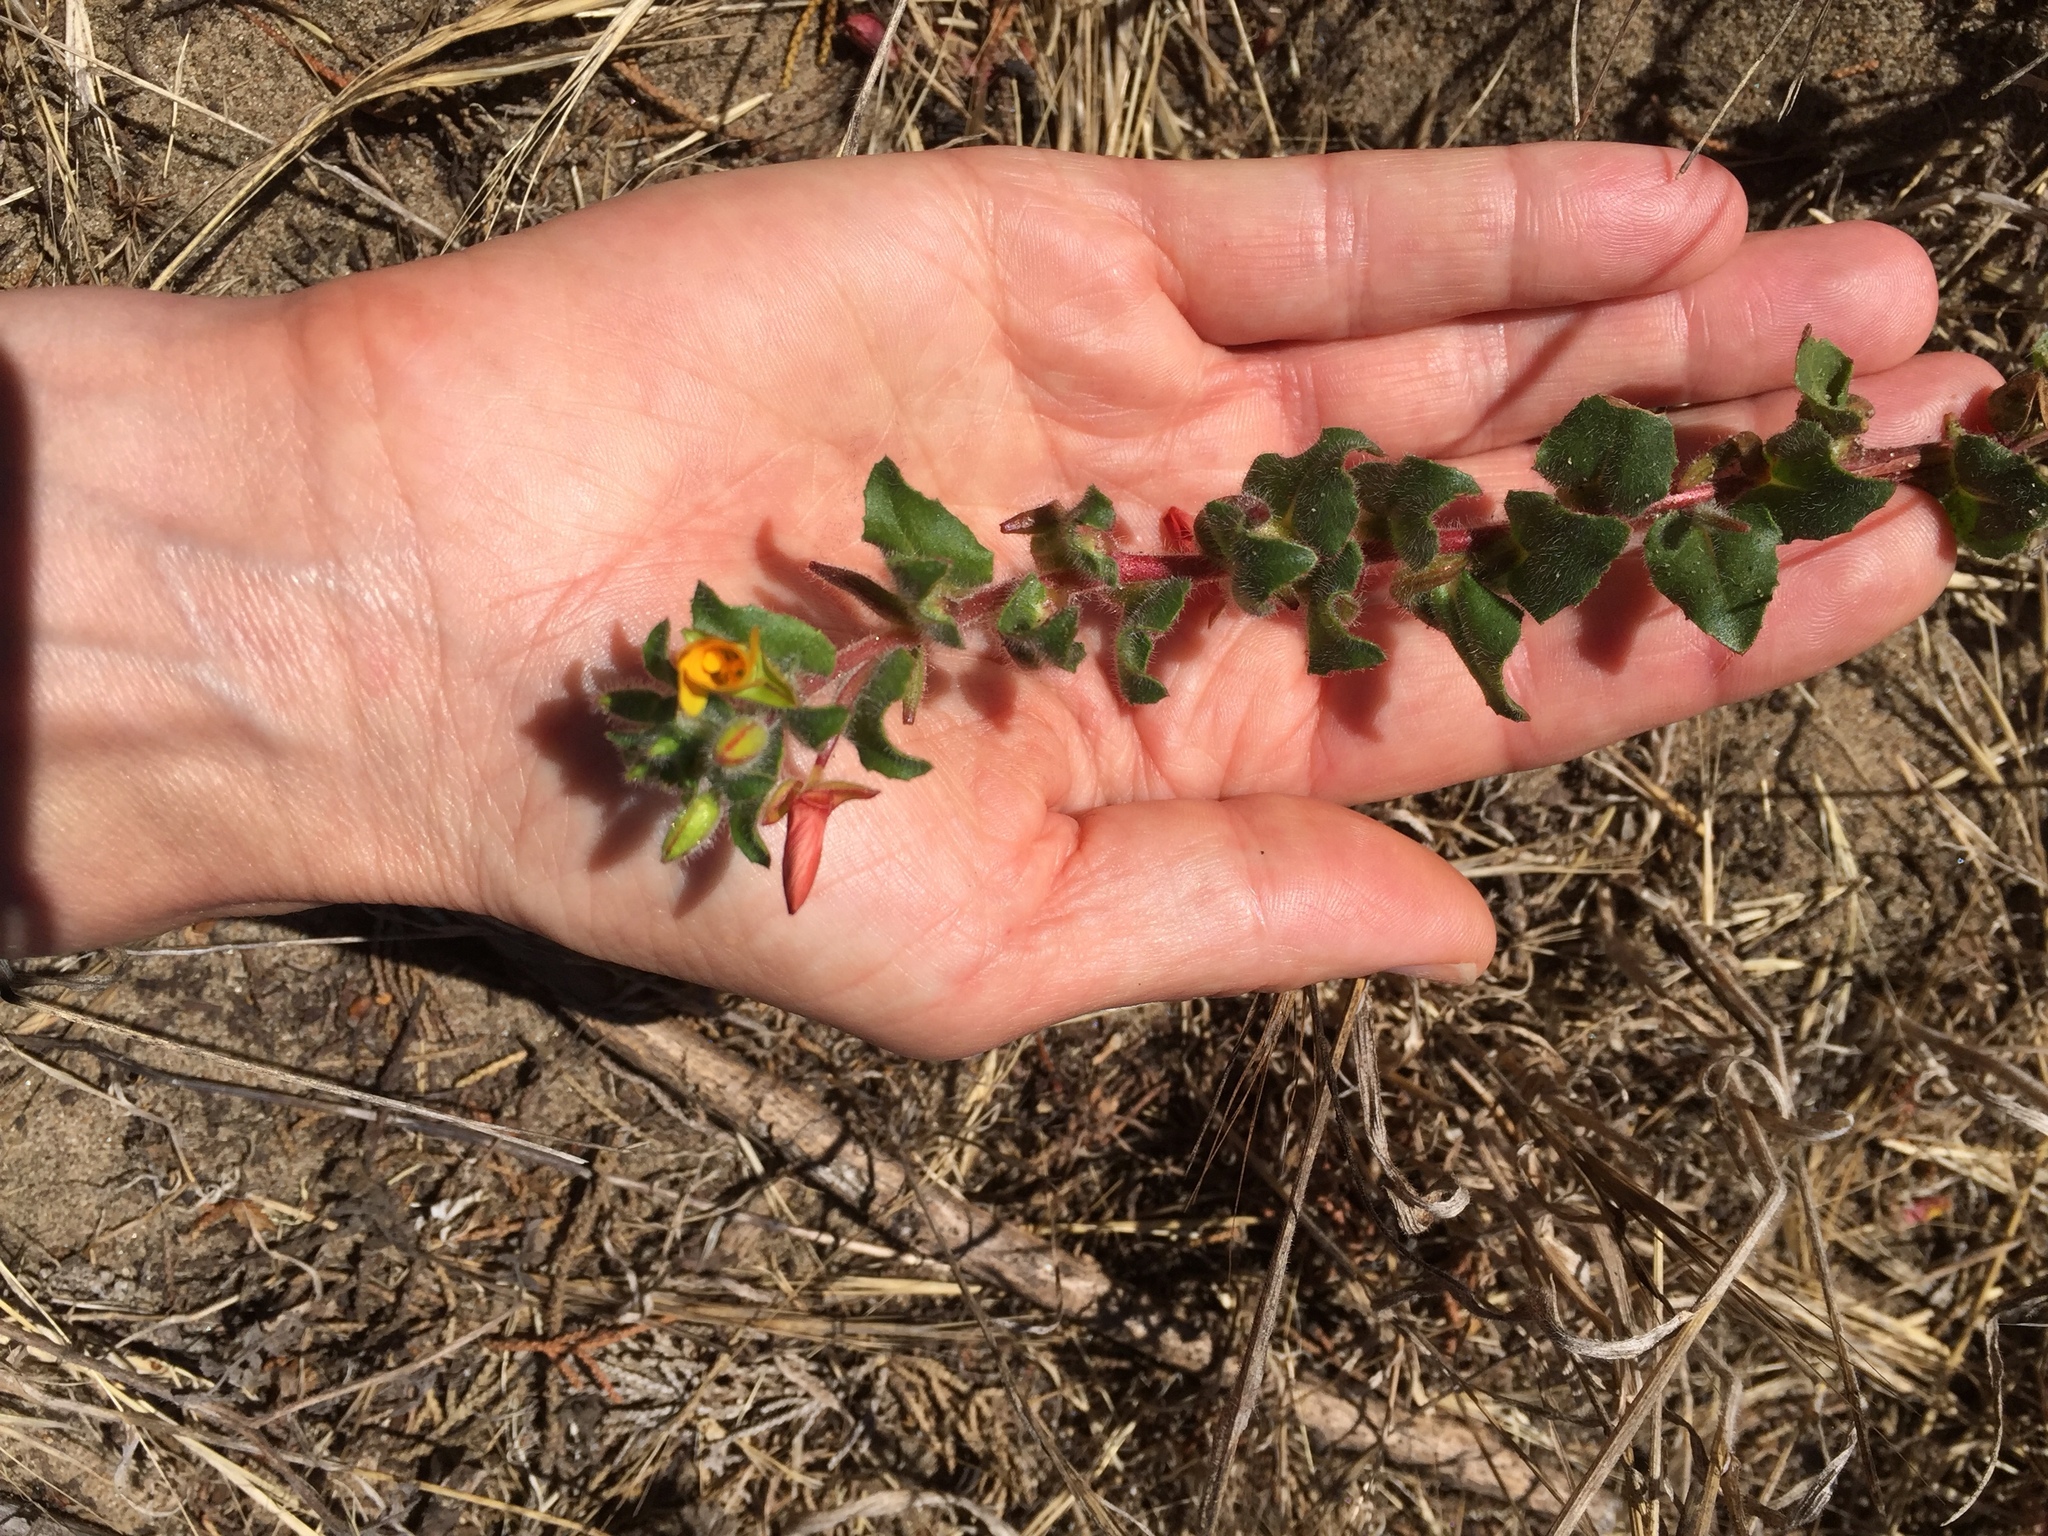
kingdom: Plantae
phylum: Tracheophyta
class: Magnoliopsida
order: Myrtales
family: Onagraceae
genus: Camissoniopsis
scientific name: Camissoniopsis cheiranthifolia
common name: Beach suncup
